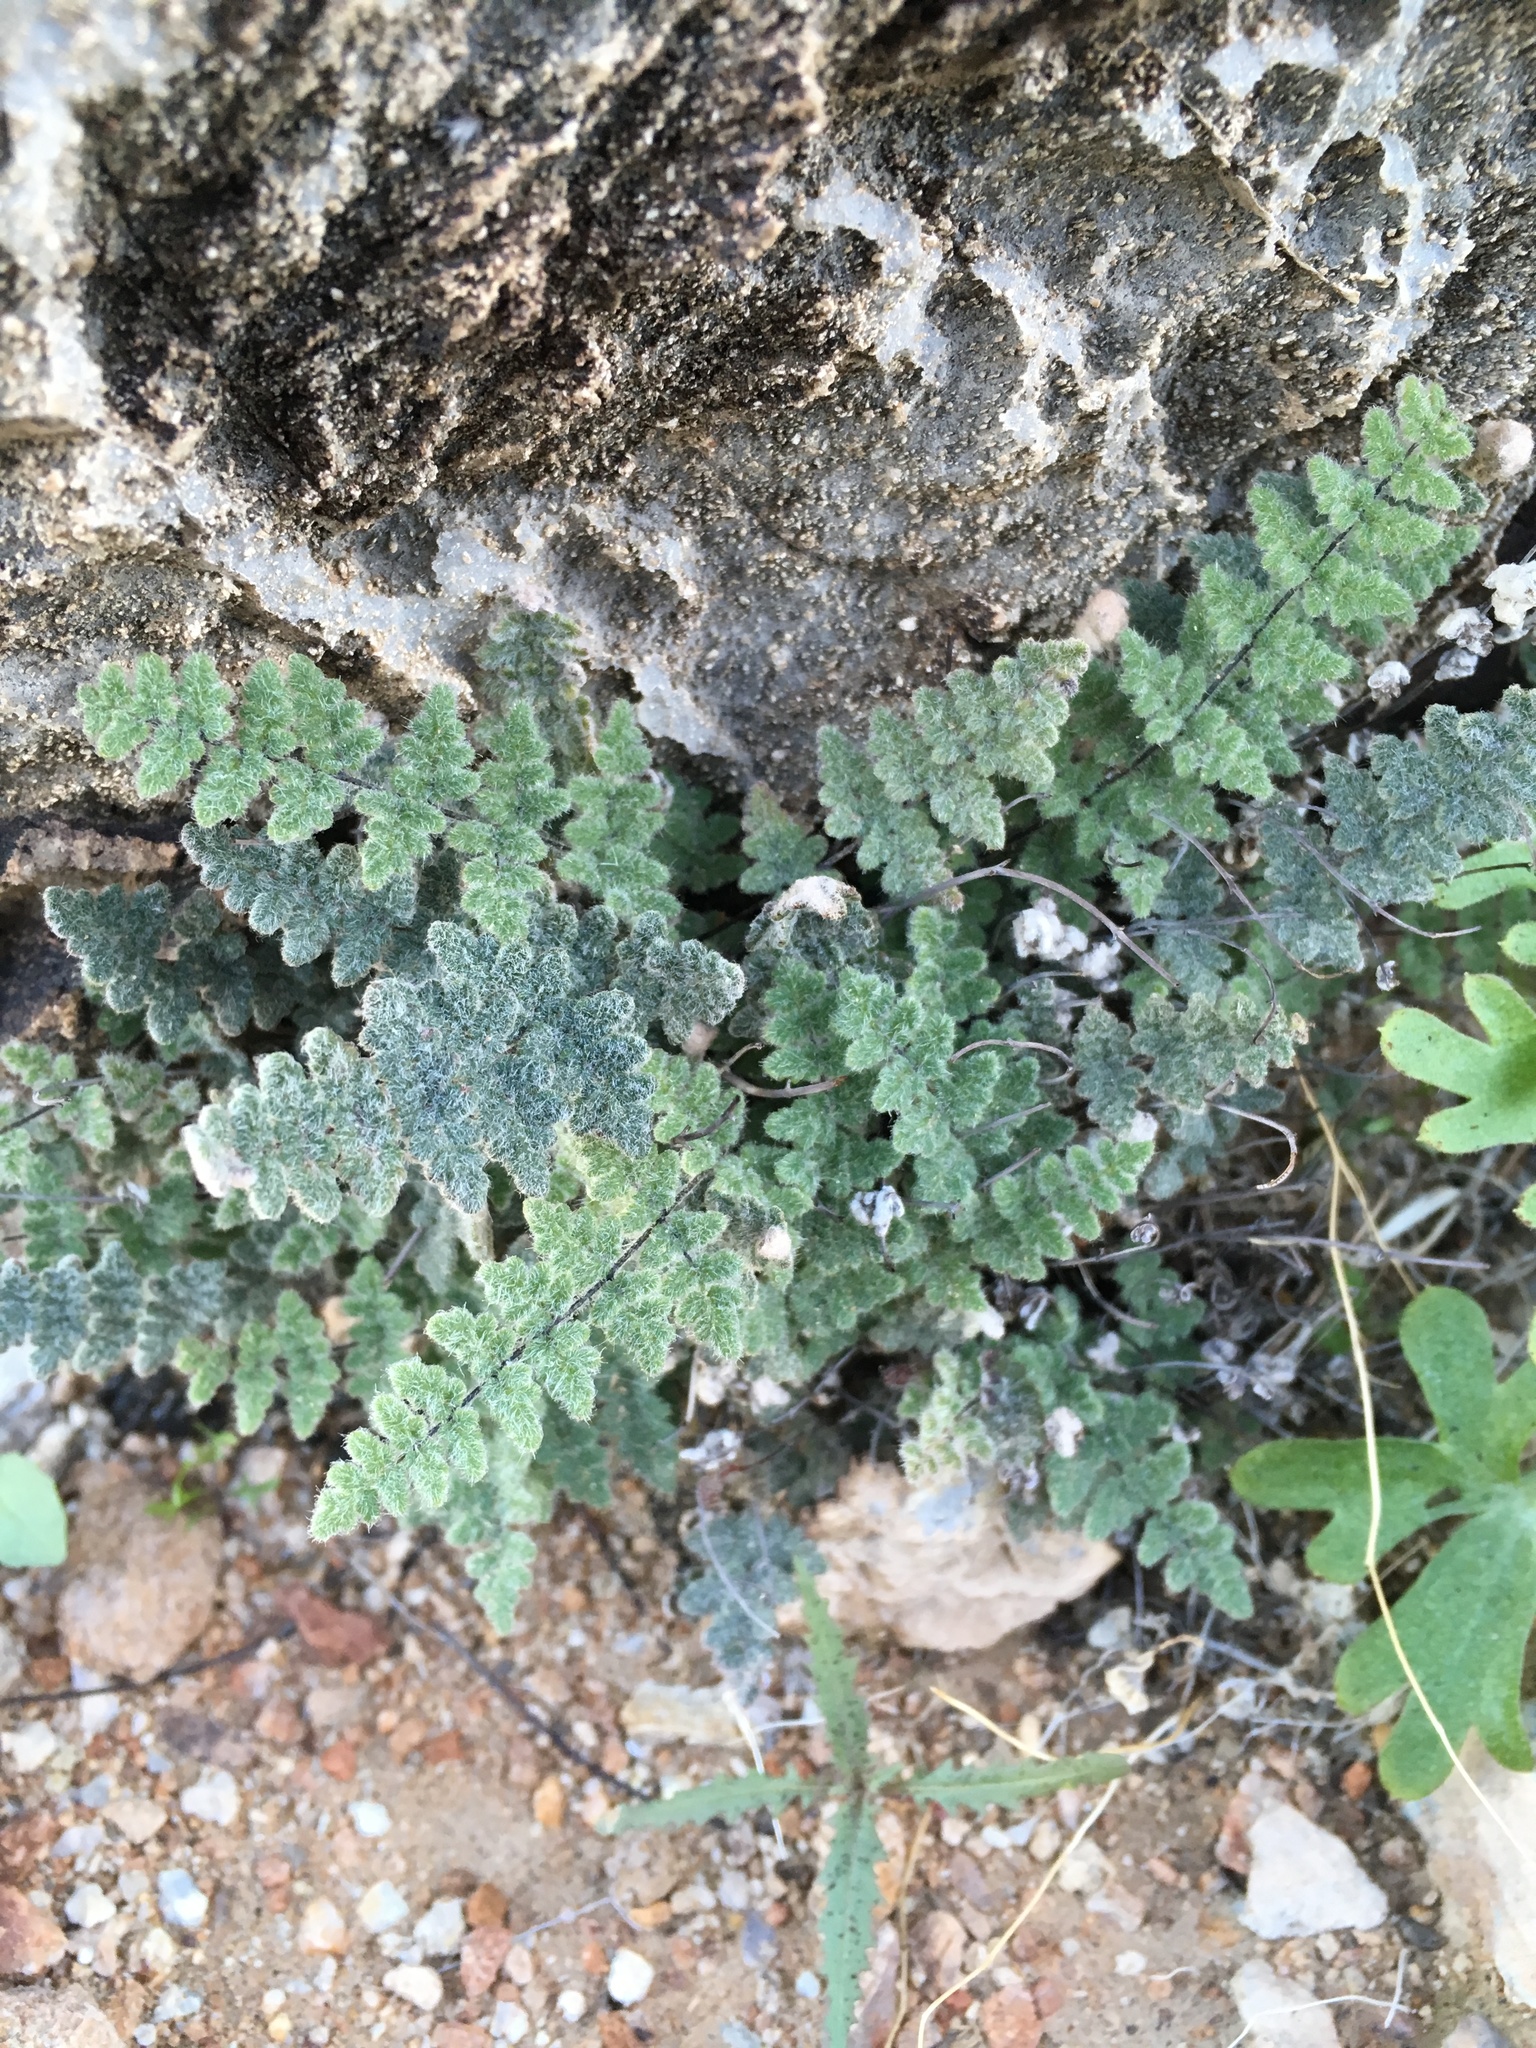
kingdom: Plantae
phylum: Tracheophyta
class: Polypodiopsida
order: Polypodiales
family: Pteridaceae
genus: Myriopteris
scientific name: Myriopteris parryi
